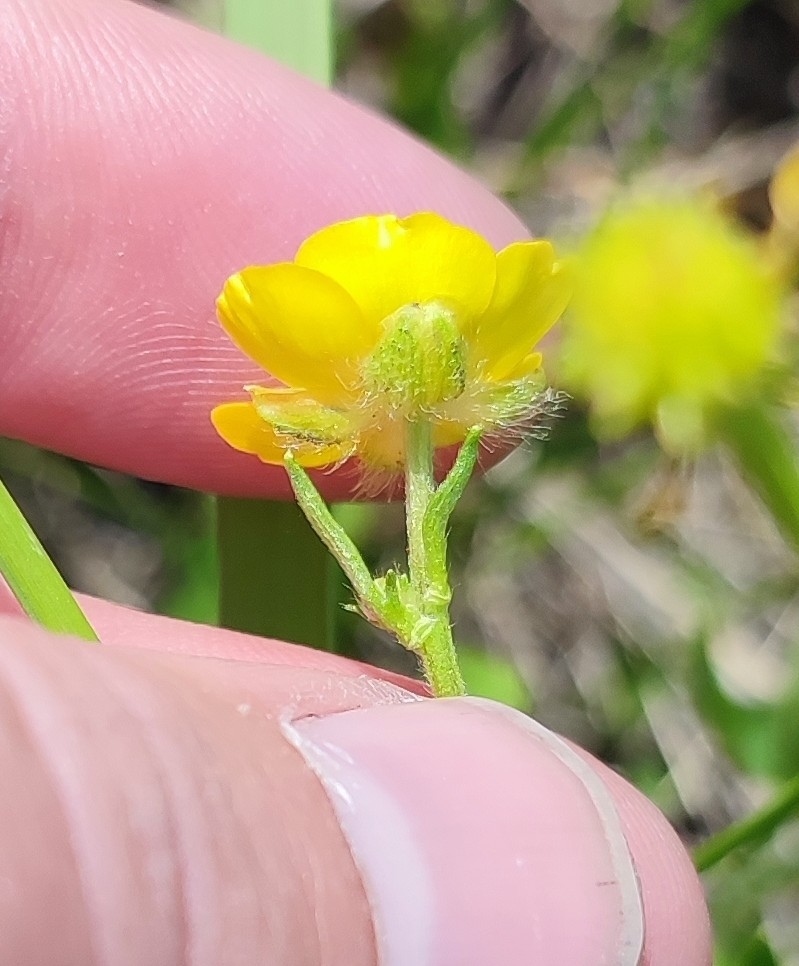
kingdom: Plantae
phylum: Tracheophyta
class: Magnoliopsida
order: Ranunculales
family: Ranunculaceae
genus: Ranunculus
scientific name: Ranunculus polyanthemos
